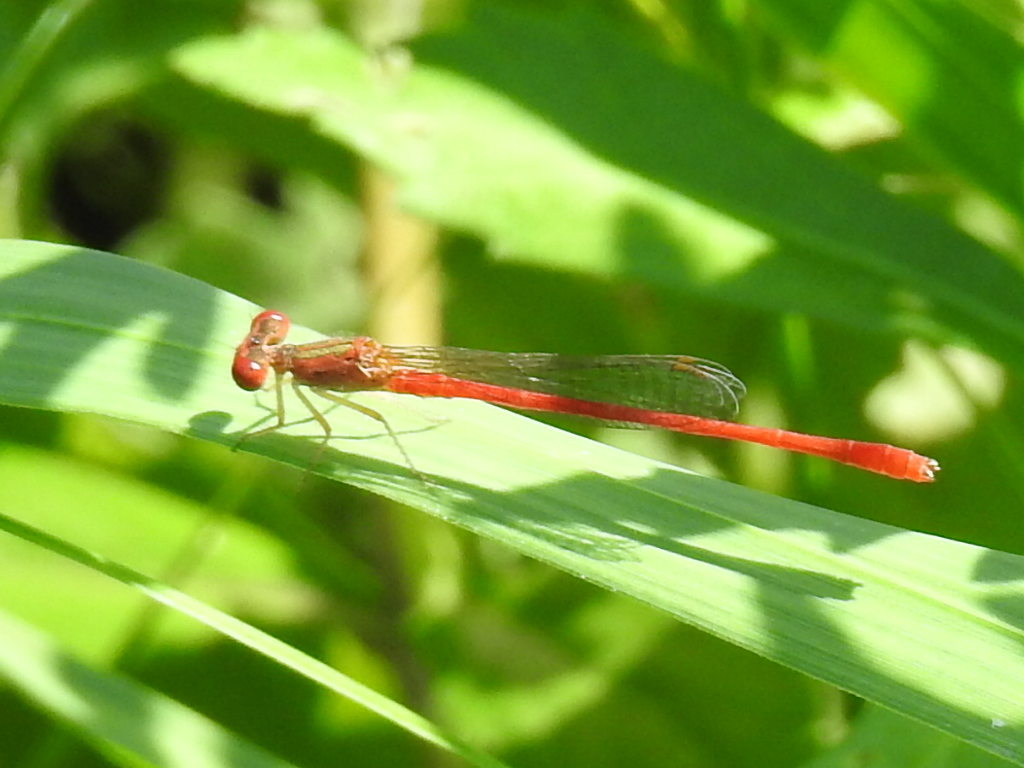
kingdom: Animalia
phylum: Arthropoda
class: Insecta
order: Odonata
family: Coenagrionidae
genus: Telebasis
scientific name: Telebasis salva
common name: Desert firetail
